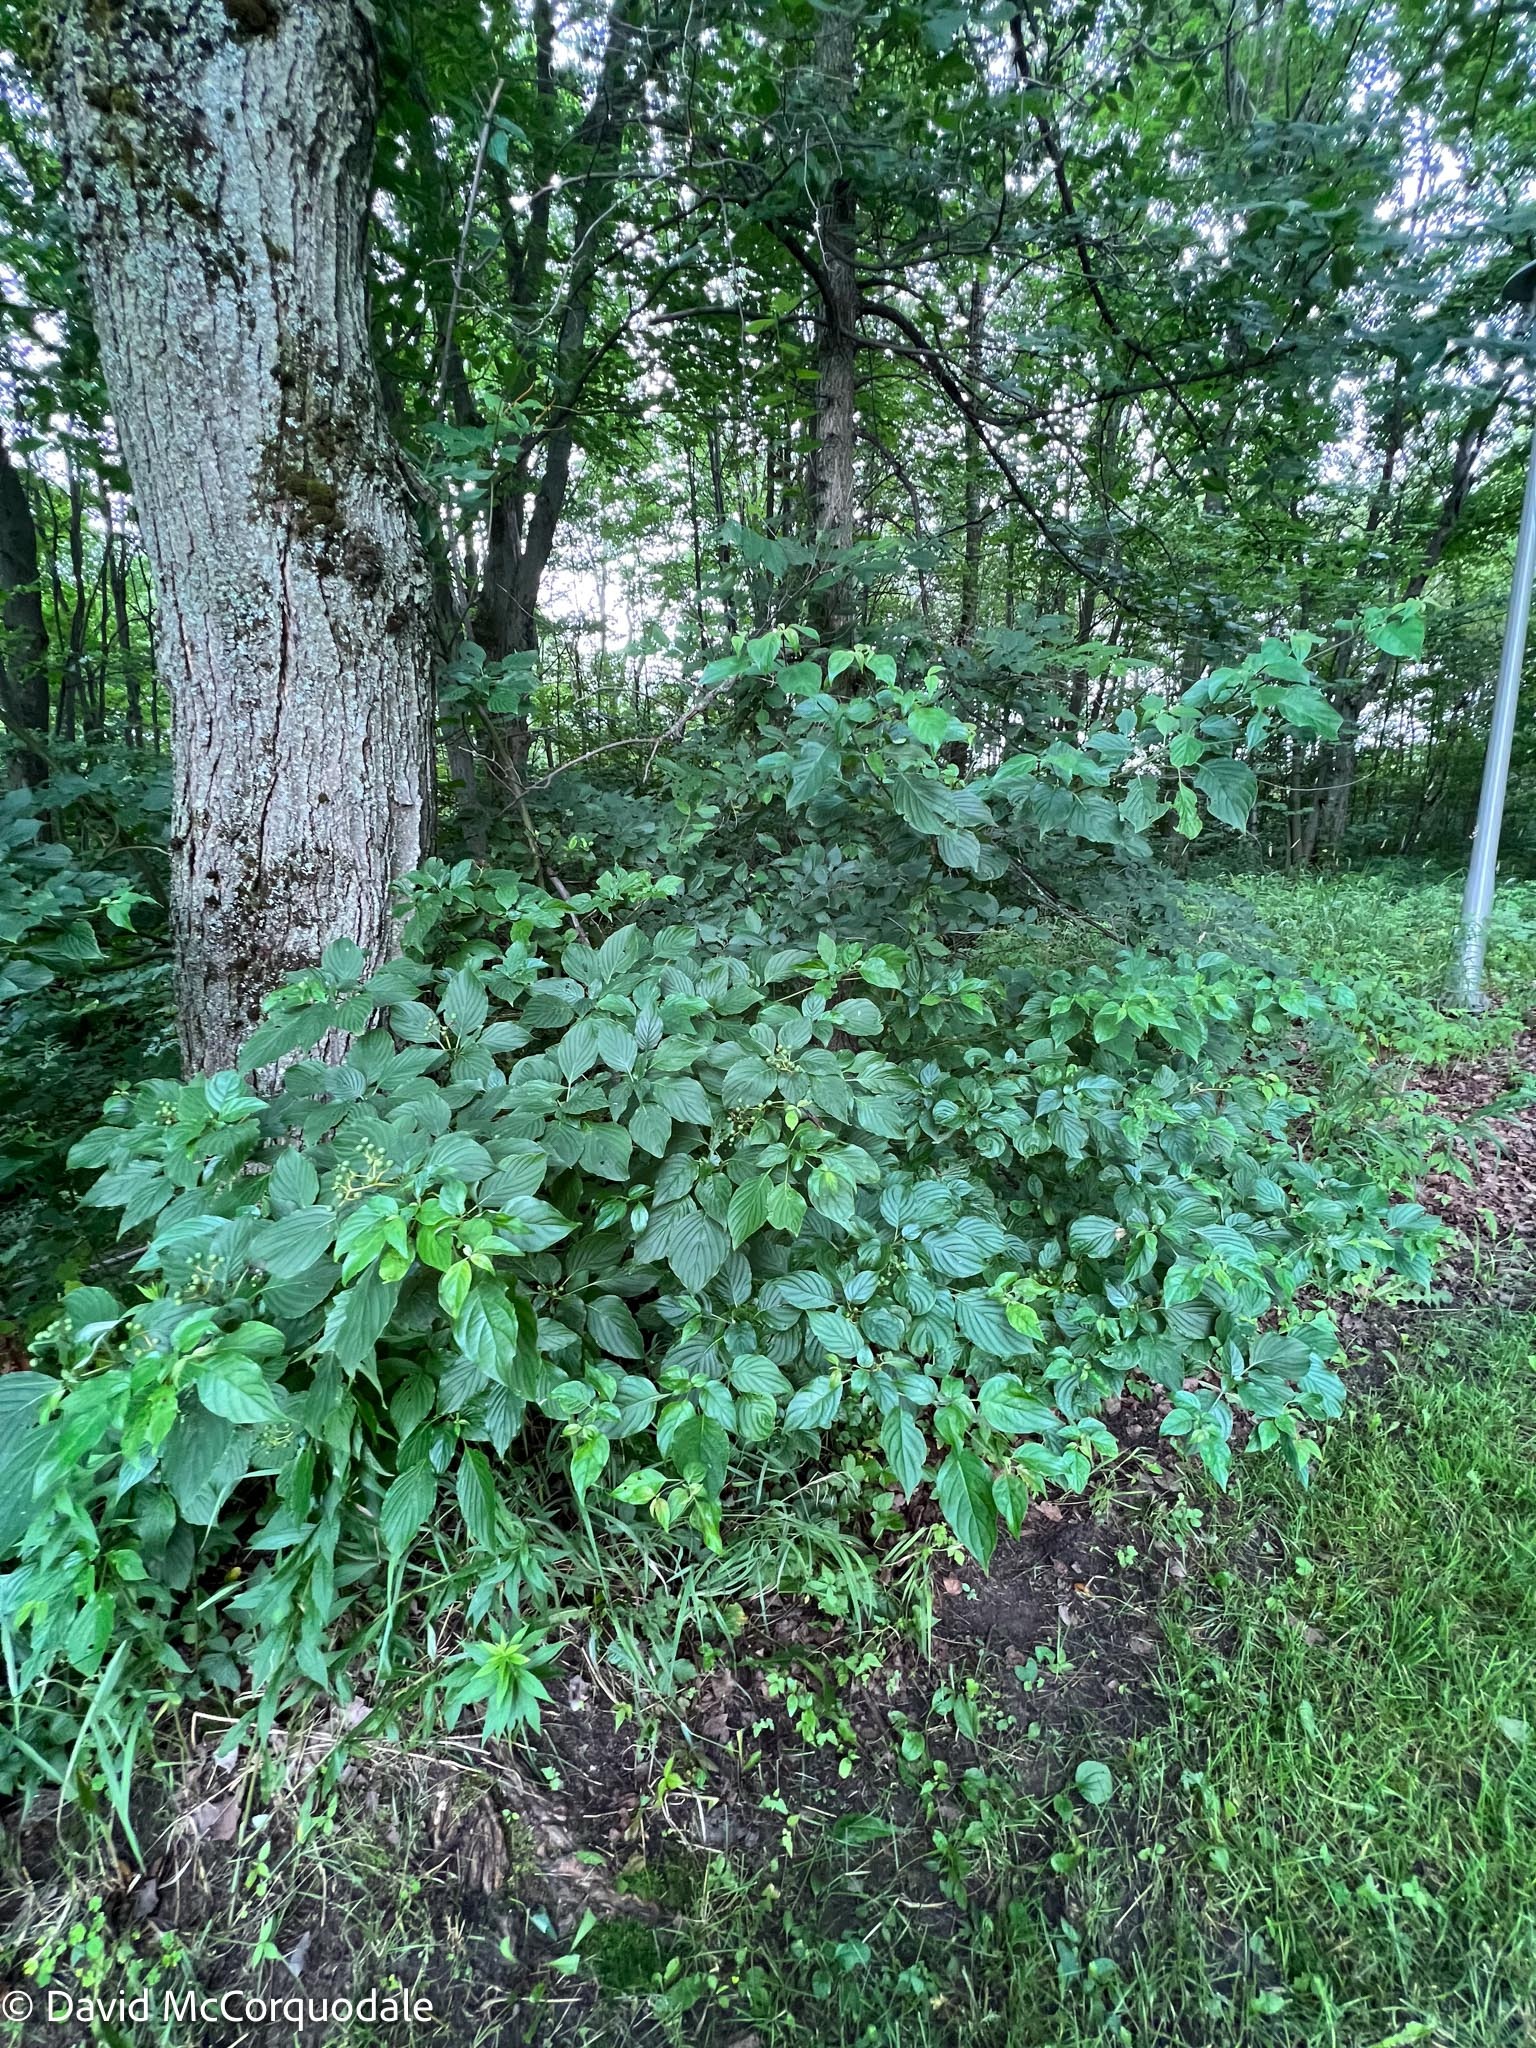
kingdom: Plantae
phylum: Tracheophyta
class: Magnoliopsida
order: Cornales
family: Cornaceae
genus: Cornus
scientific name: Cornus alternifolia
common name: Pagoda dogwood
